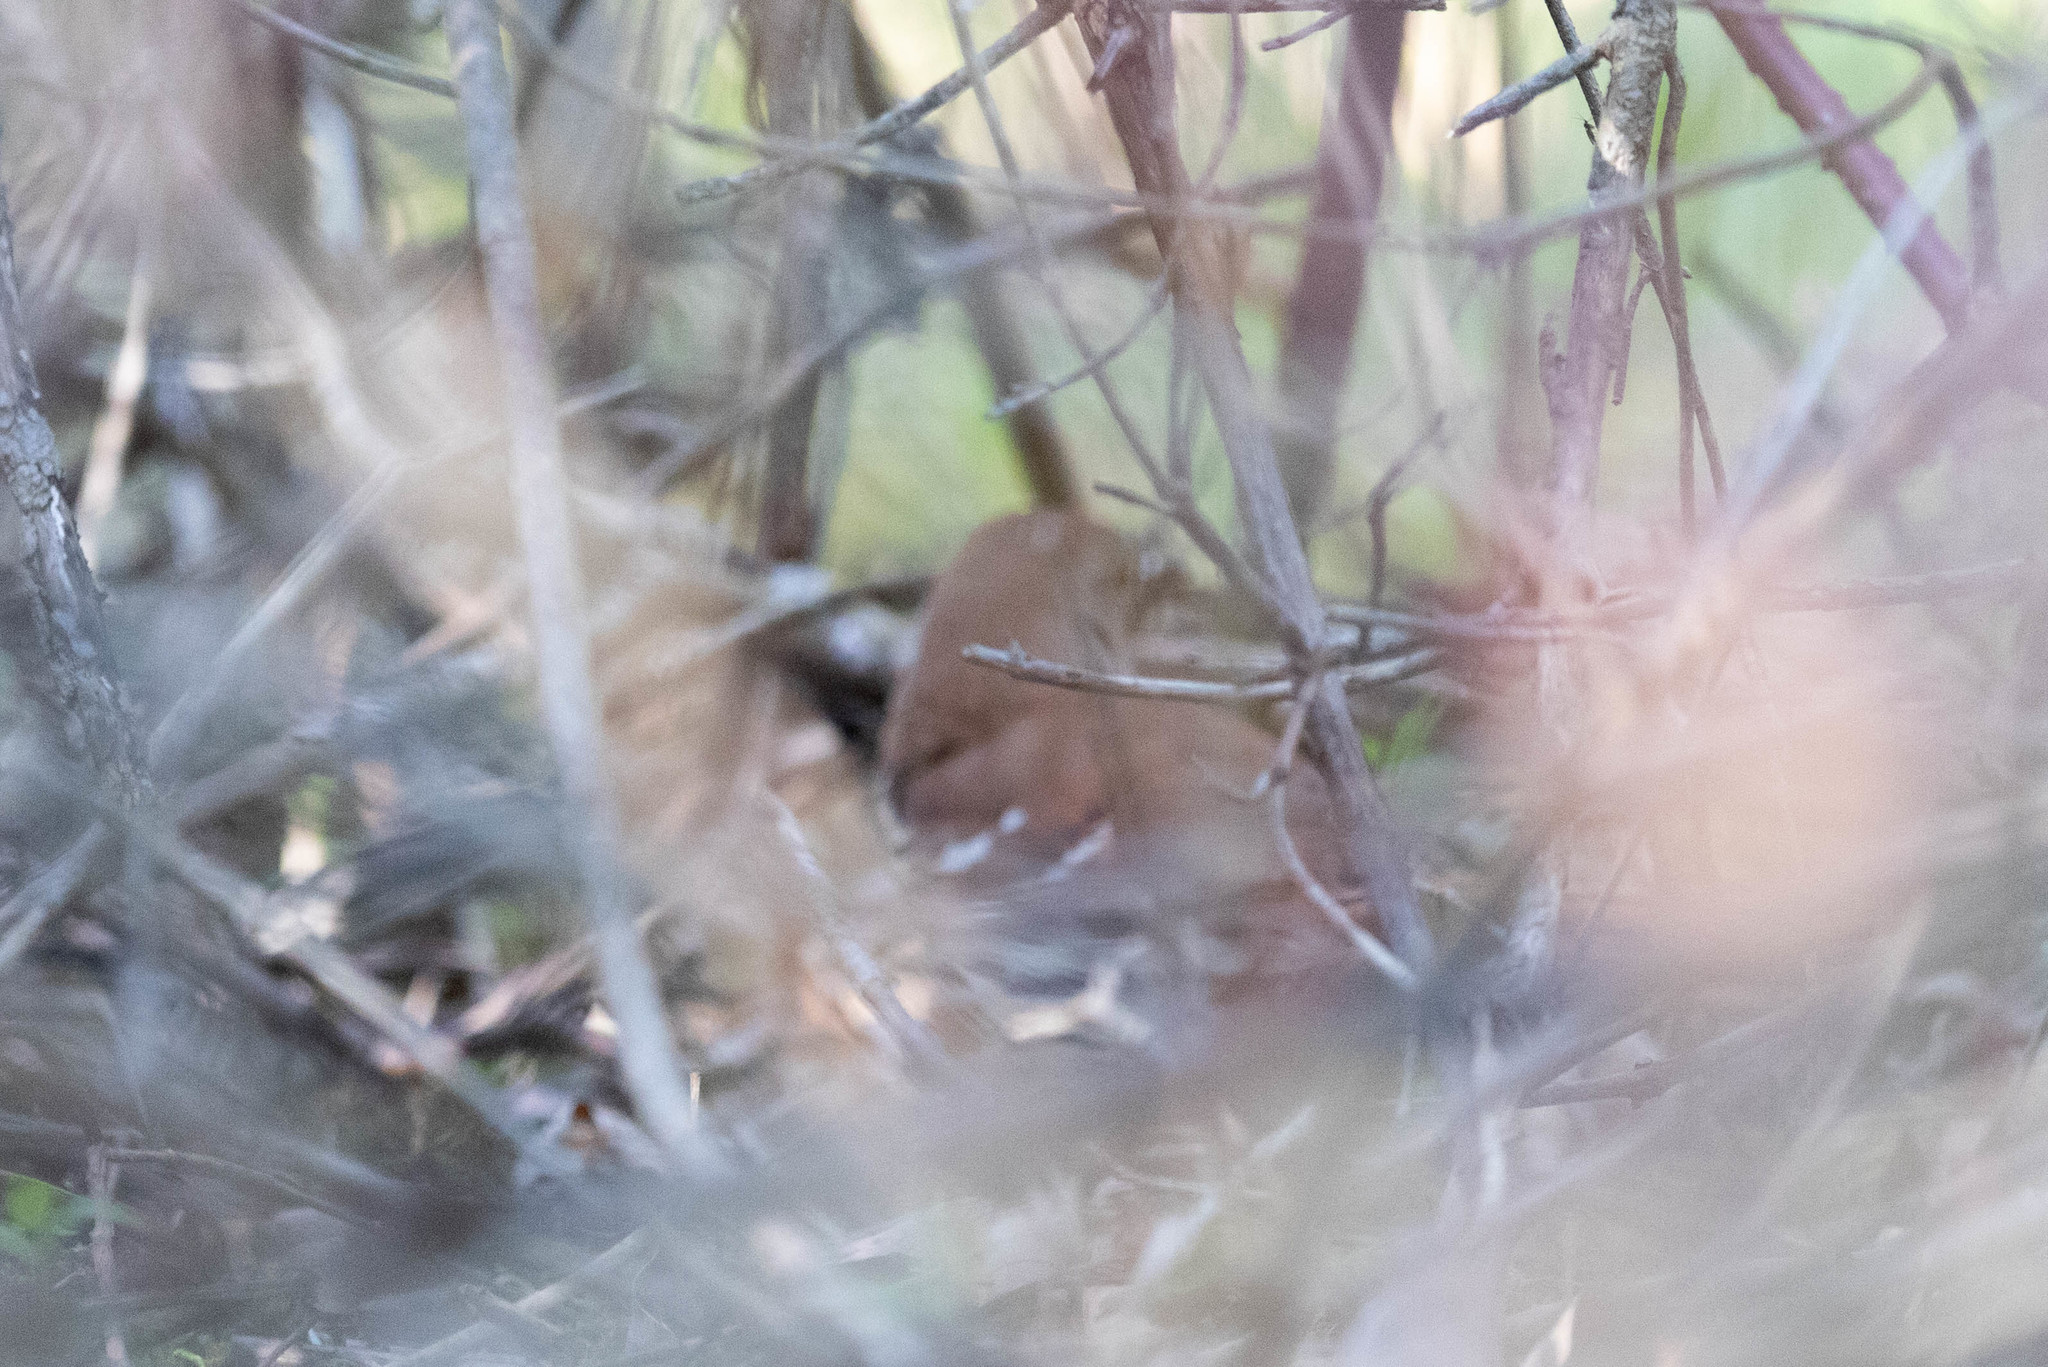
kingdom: Animalia
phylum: Chordata
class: Aves
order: Passeriformes
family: Mimidae
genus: Toxostoma
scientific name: Toxostoma rufum
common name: Brown thrasher
